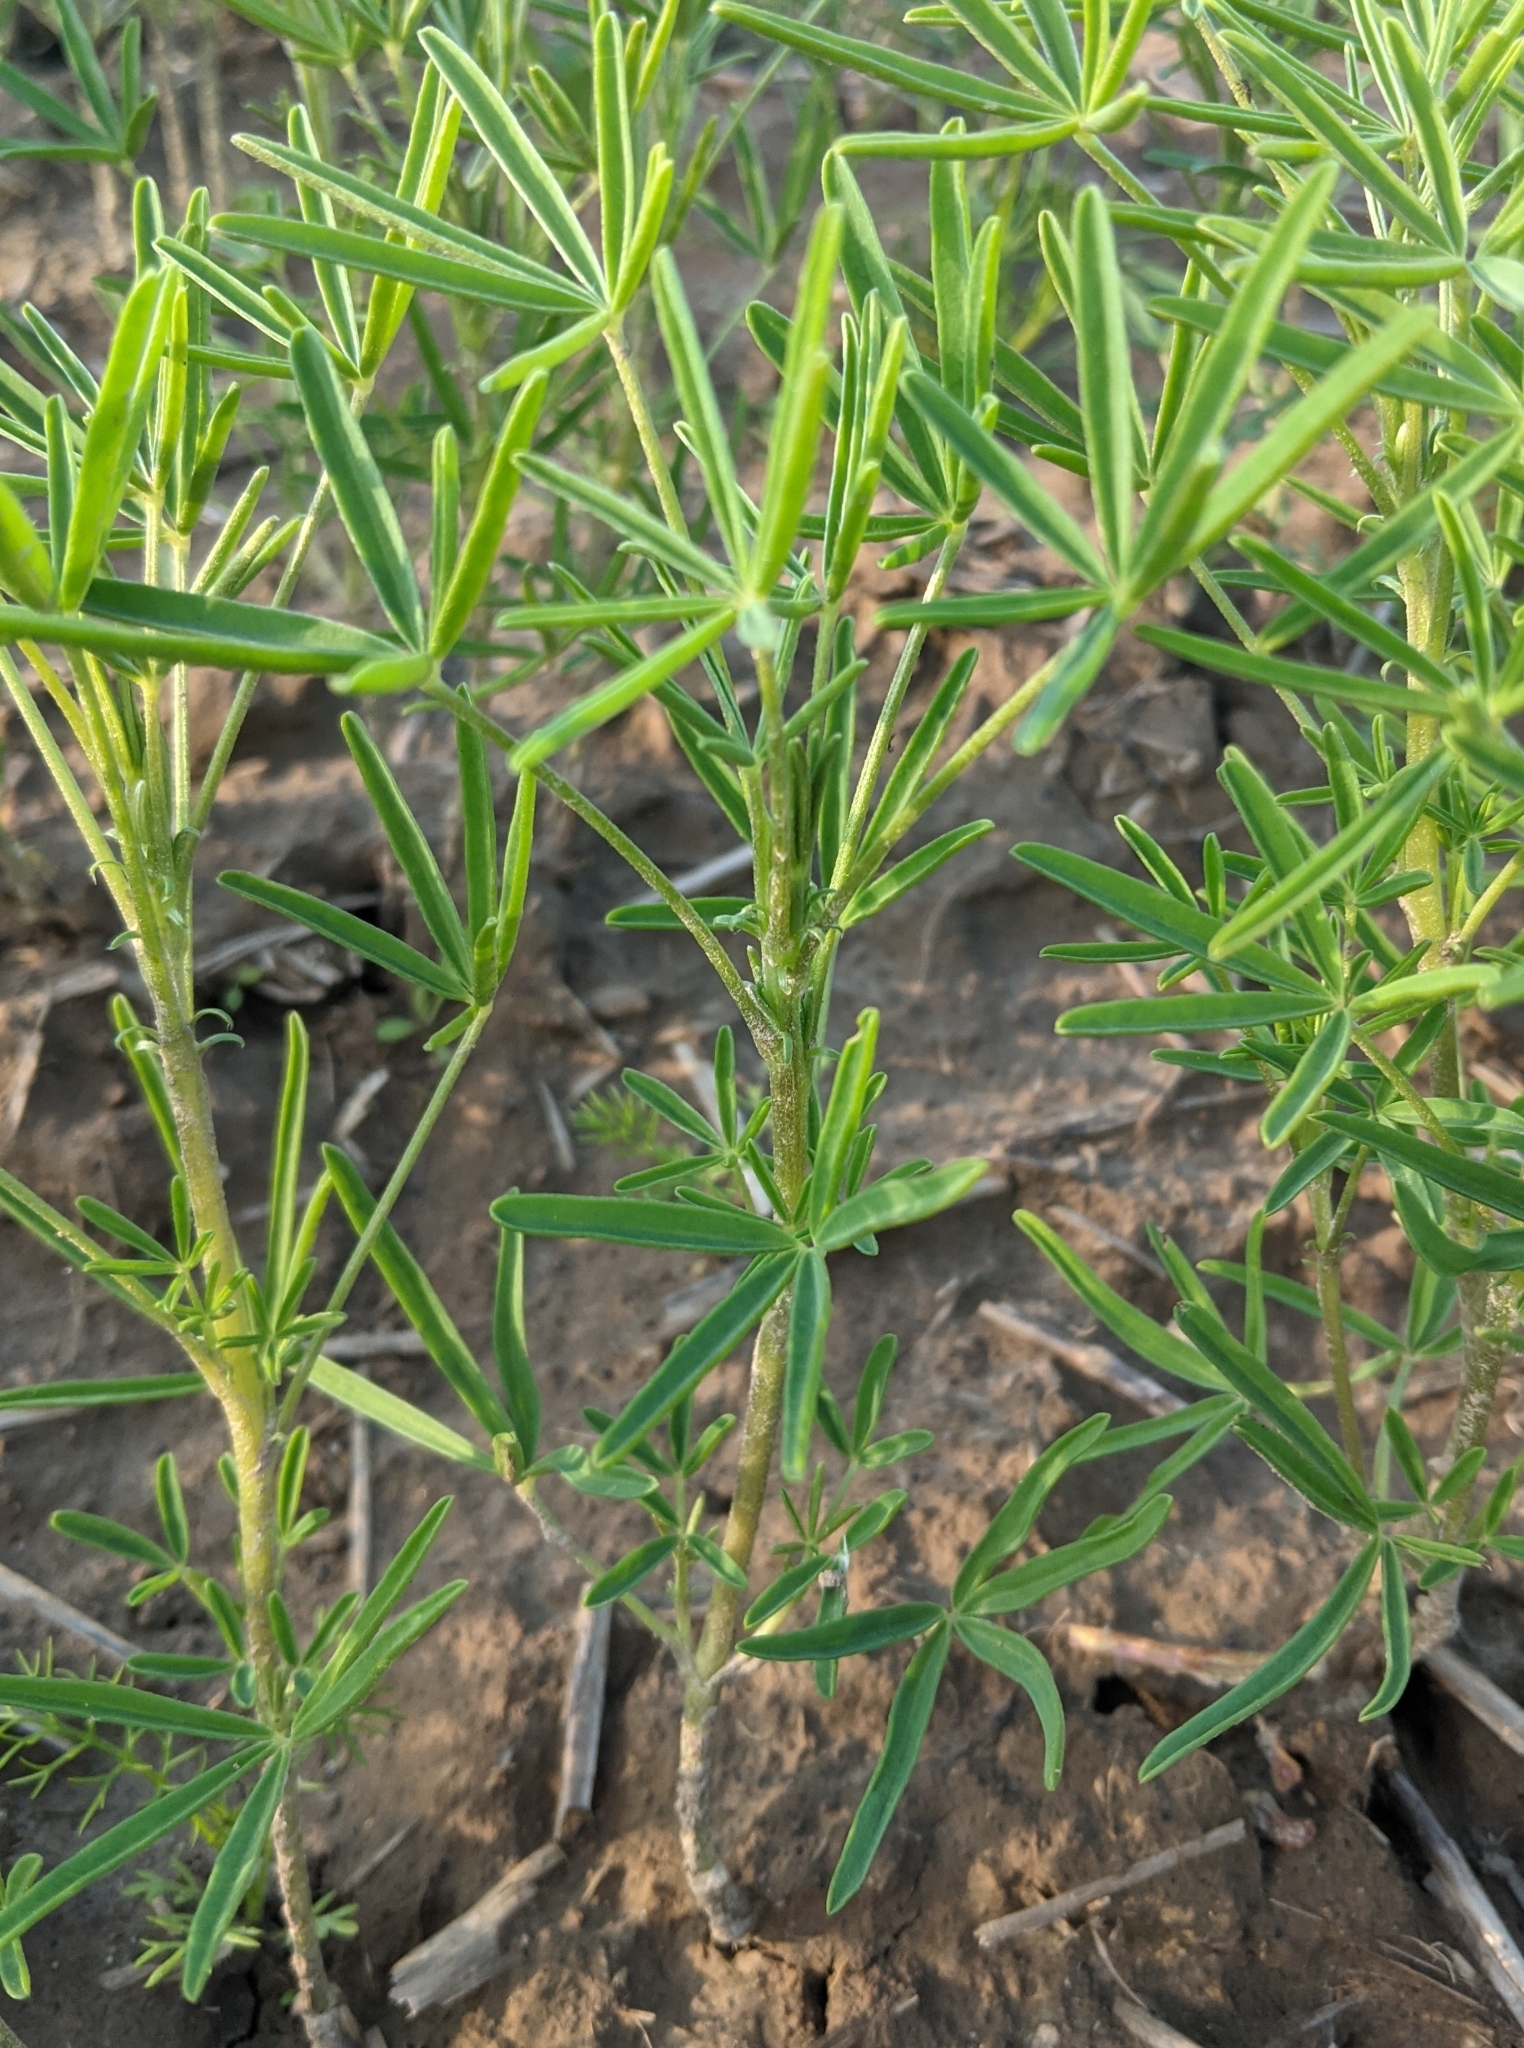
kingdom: Plantae
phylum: Tracheophyta
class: Magnoliopsida
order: Fabales
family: Fabaceae
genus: Lupinus
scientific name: Lupinus angustifolius
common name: Narrow-leaved lupin
